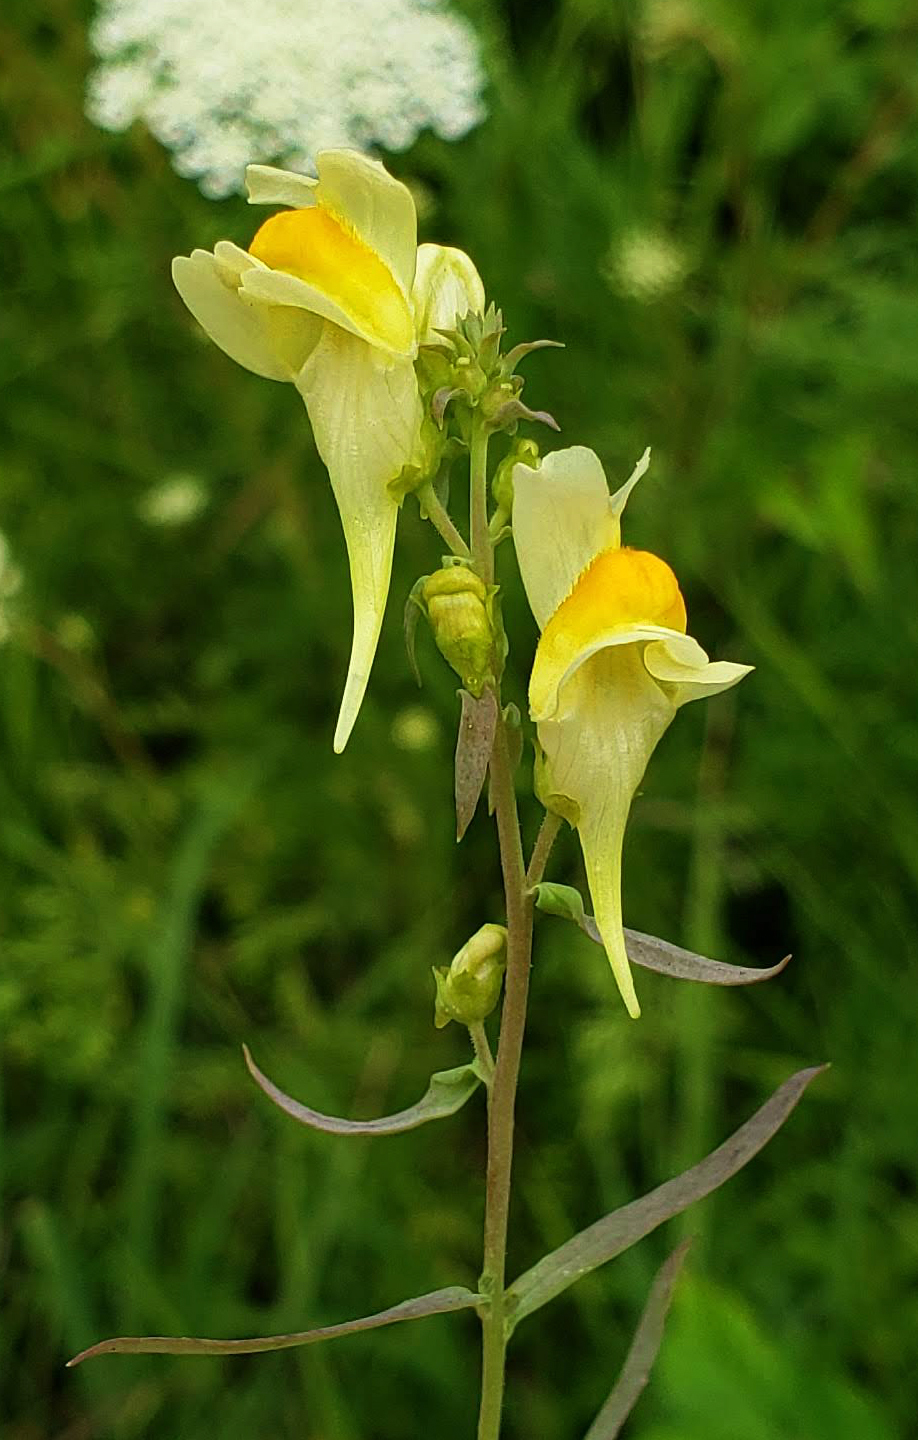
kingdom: Plantae
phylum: Tracheophyta
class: Magnoliopsida
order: Lamiales
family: Plantaginaceae
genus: Linaria
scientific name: Linaria vulgaris
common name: Butter and eggs
